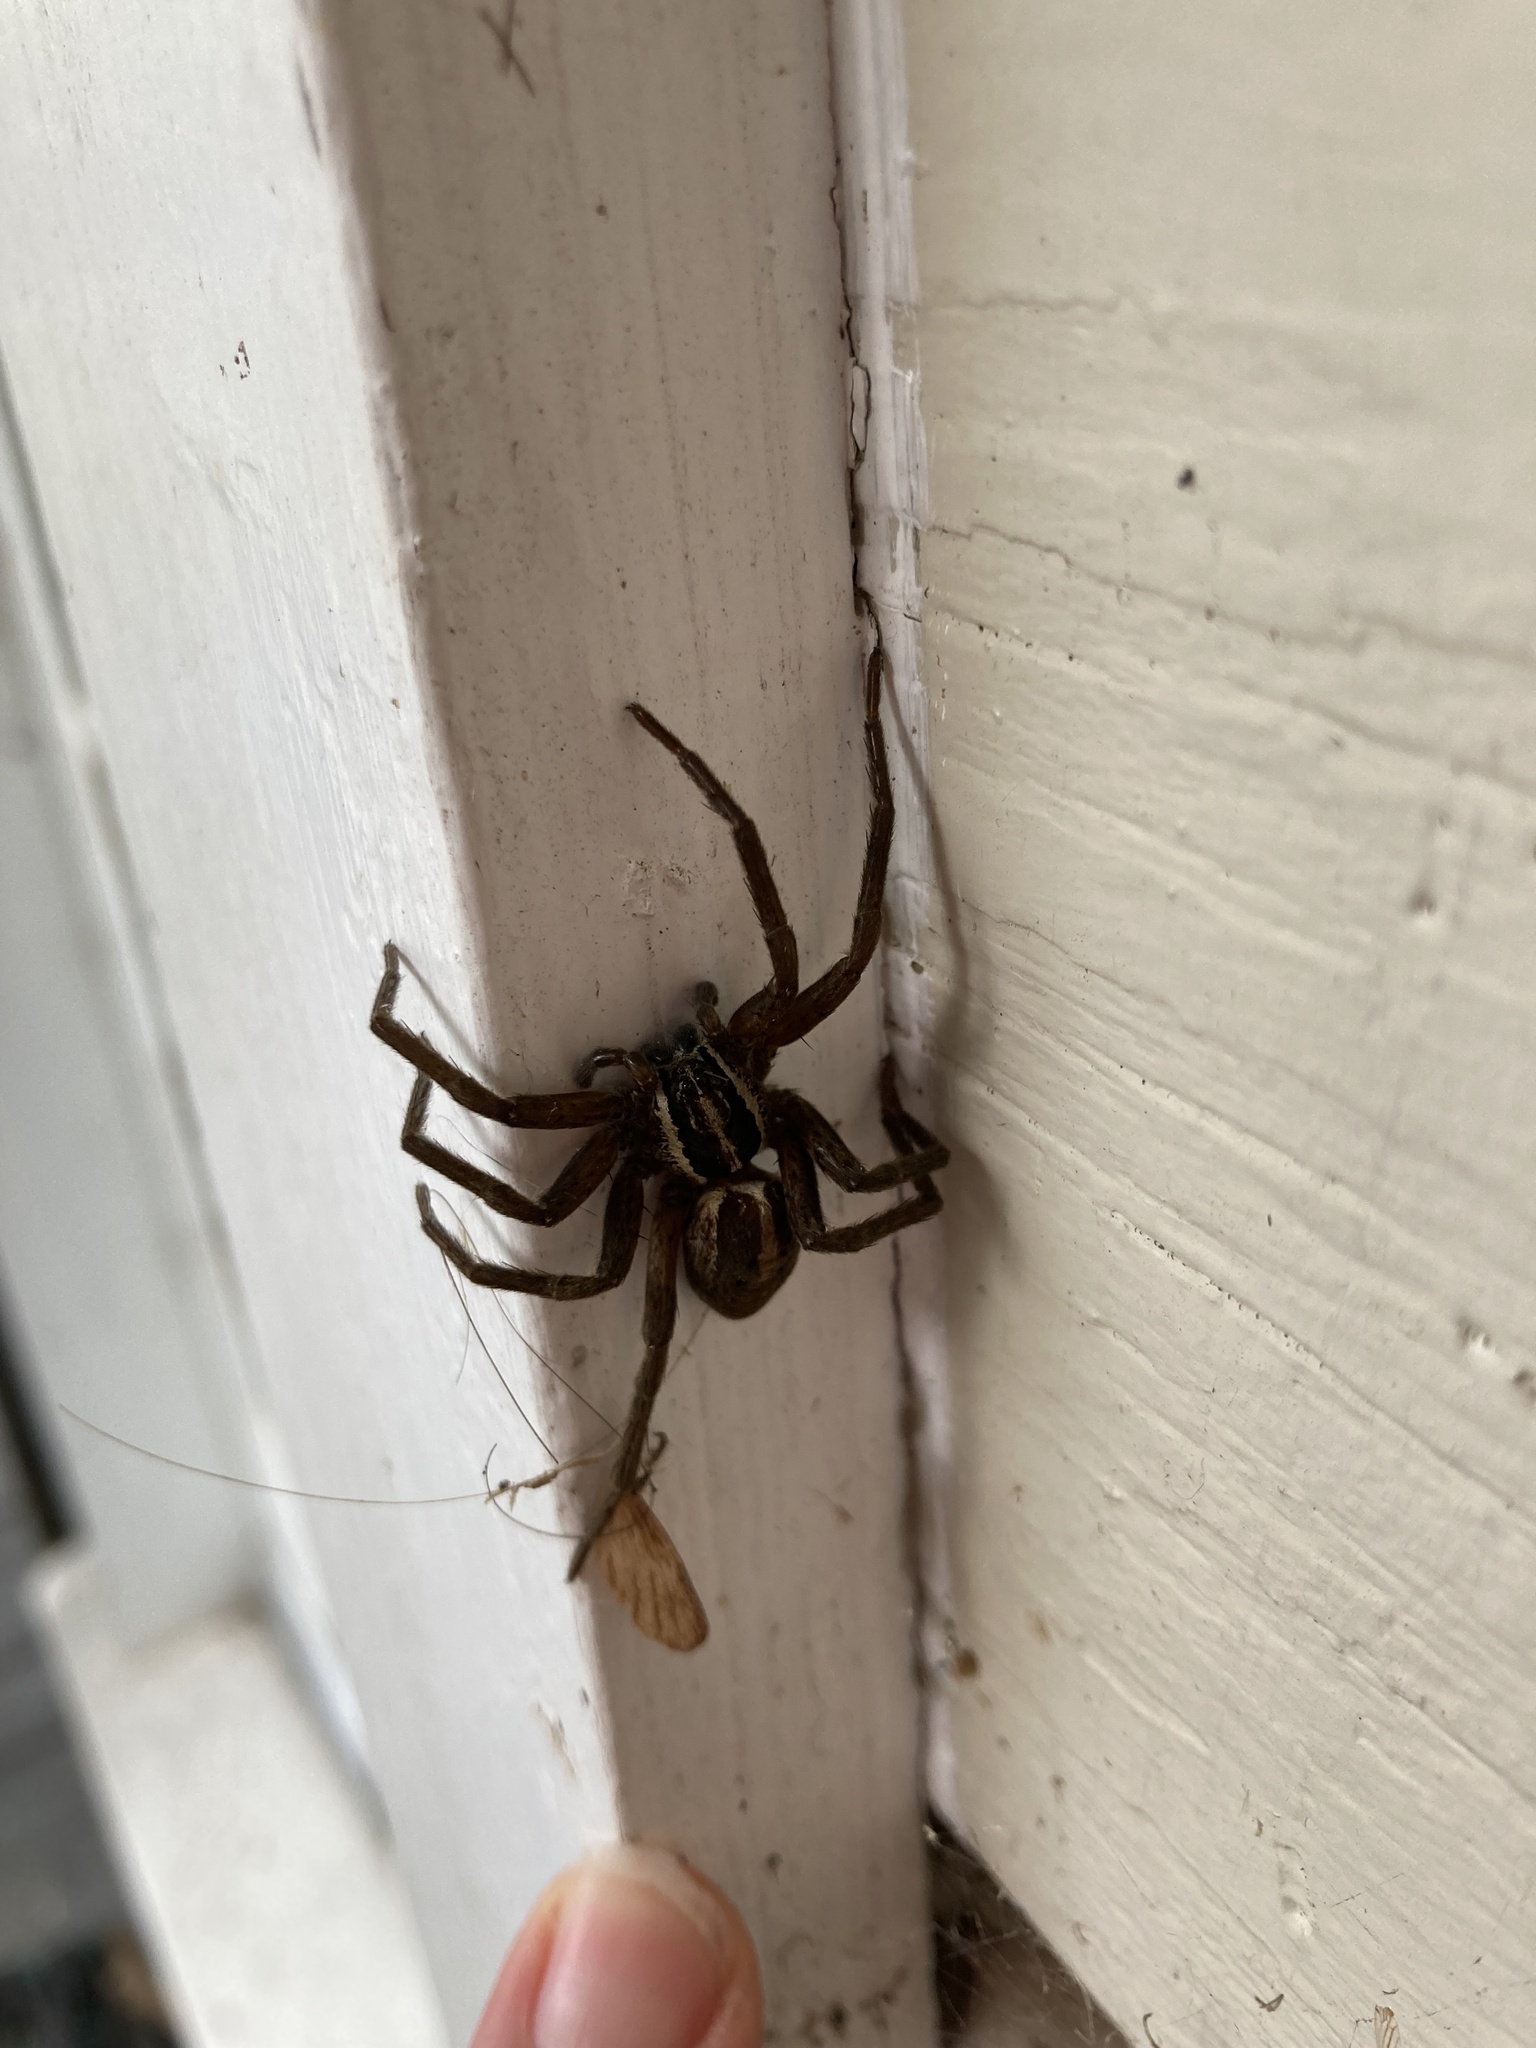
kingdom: Animalia
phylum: Arthropoda
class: Arachnida
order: Araneae
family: Pisauridae
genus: Dolomedes
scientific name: Dolomedes minor
